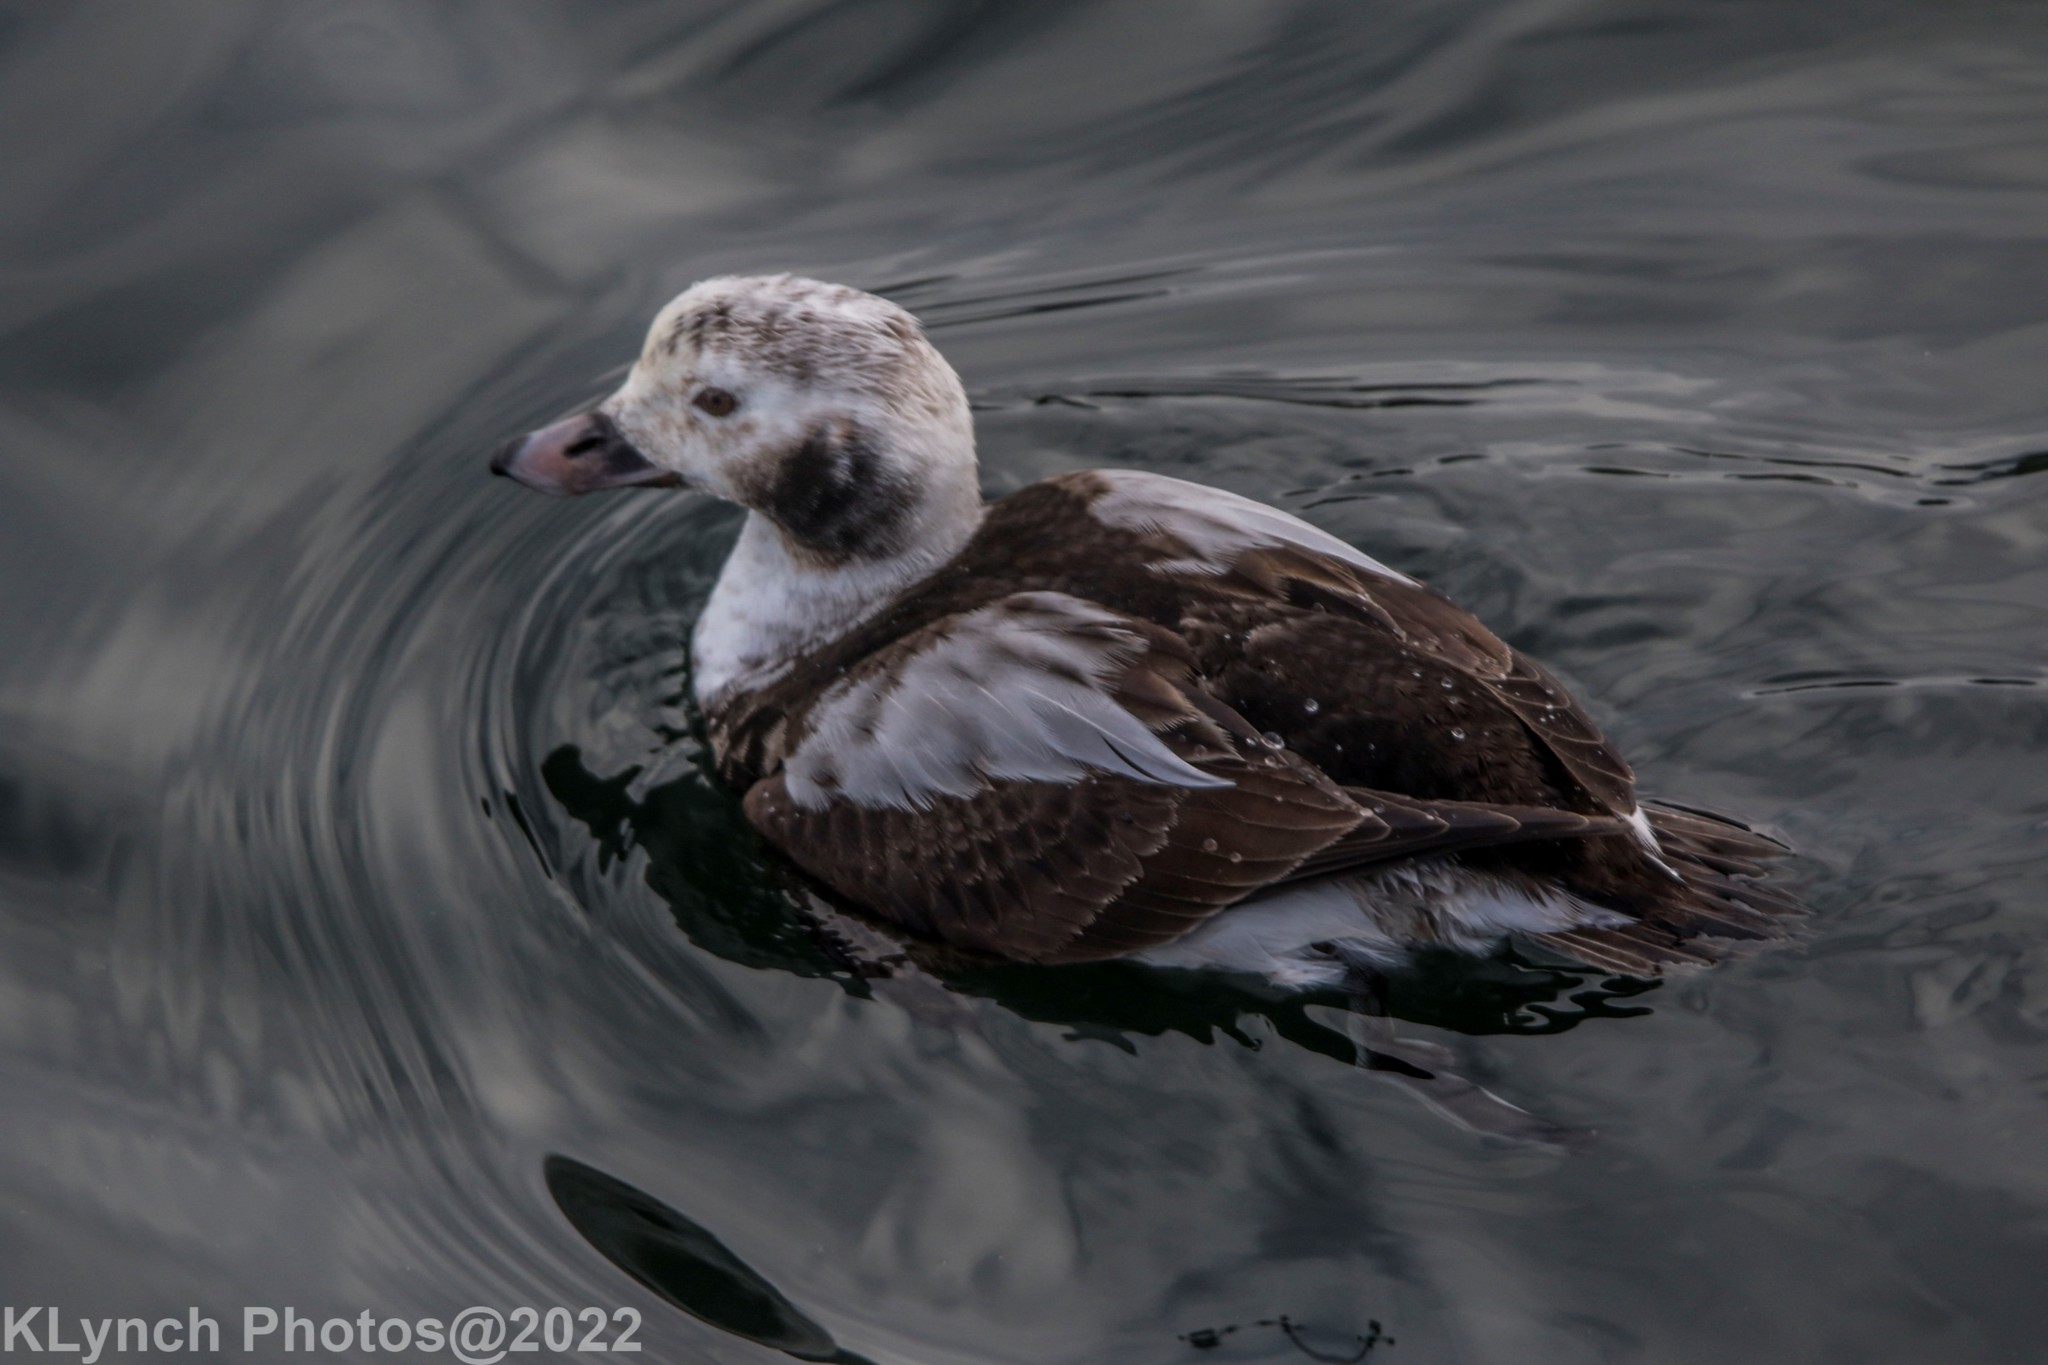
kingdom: Animalia
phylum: Chordata
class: Aves
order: Anseriformes
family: Anatidae
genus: Clangula
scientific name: Clangula hyemalis
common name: Long-tailed duck
